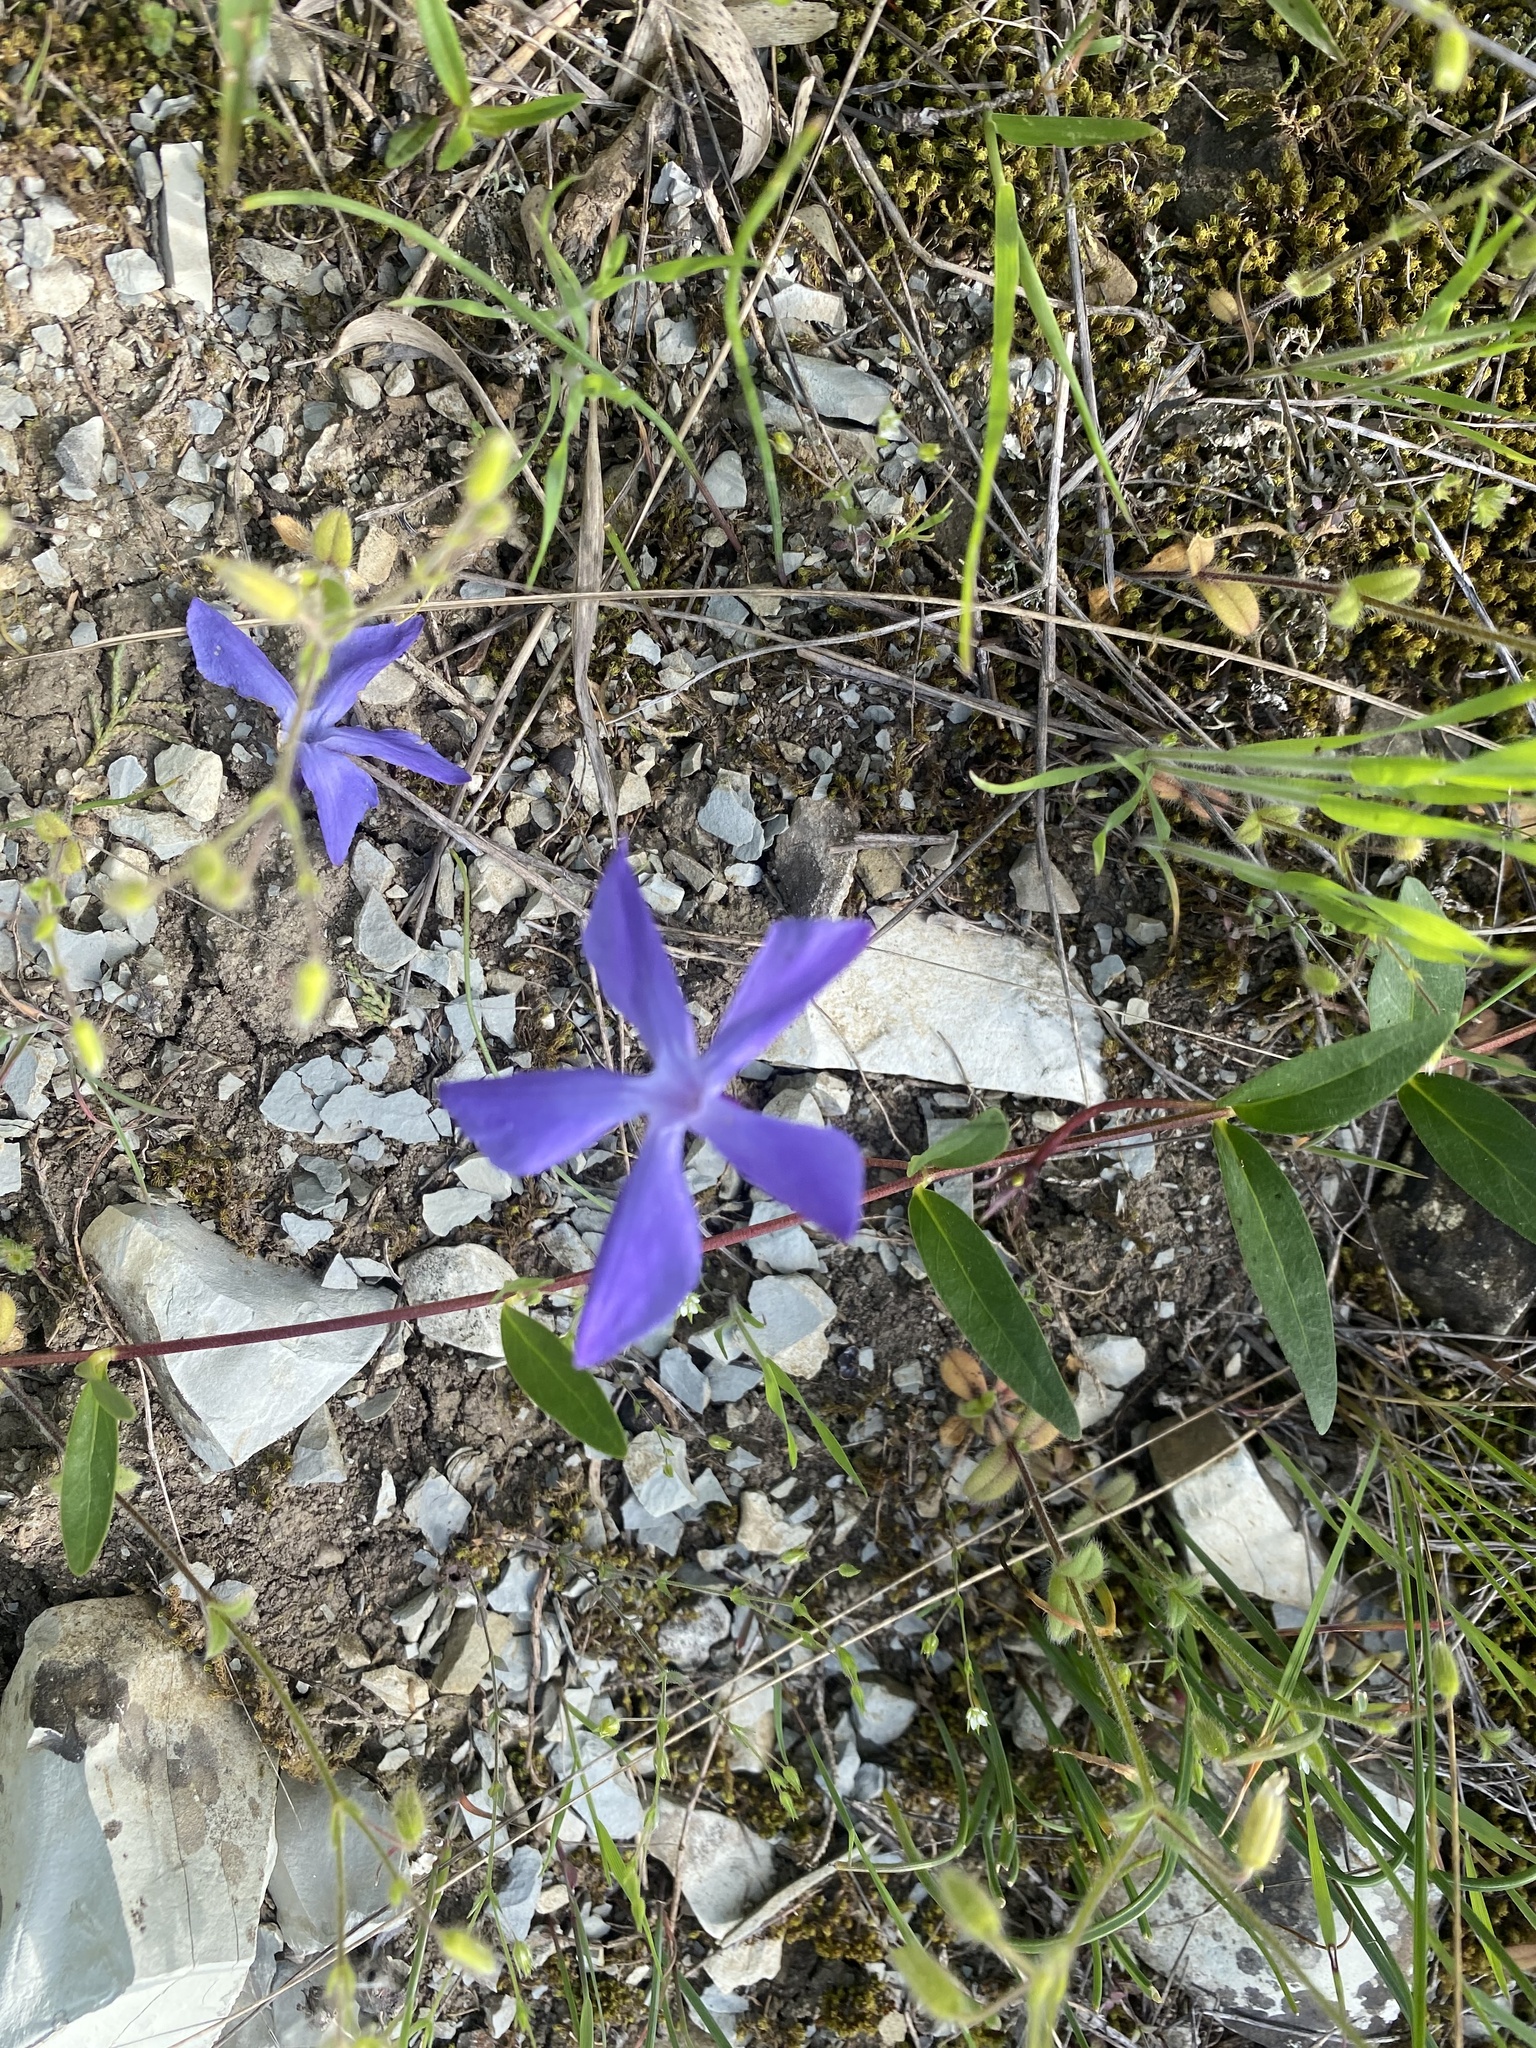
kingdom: Plantae
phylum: Tracheophyta
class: Magnoliopsida
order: Gentianales
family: Apocynaceae
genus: Vinca
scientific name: Vinca herbacea
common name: Herbaceous periwinkle
